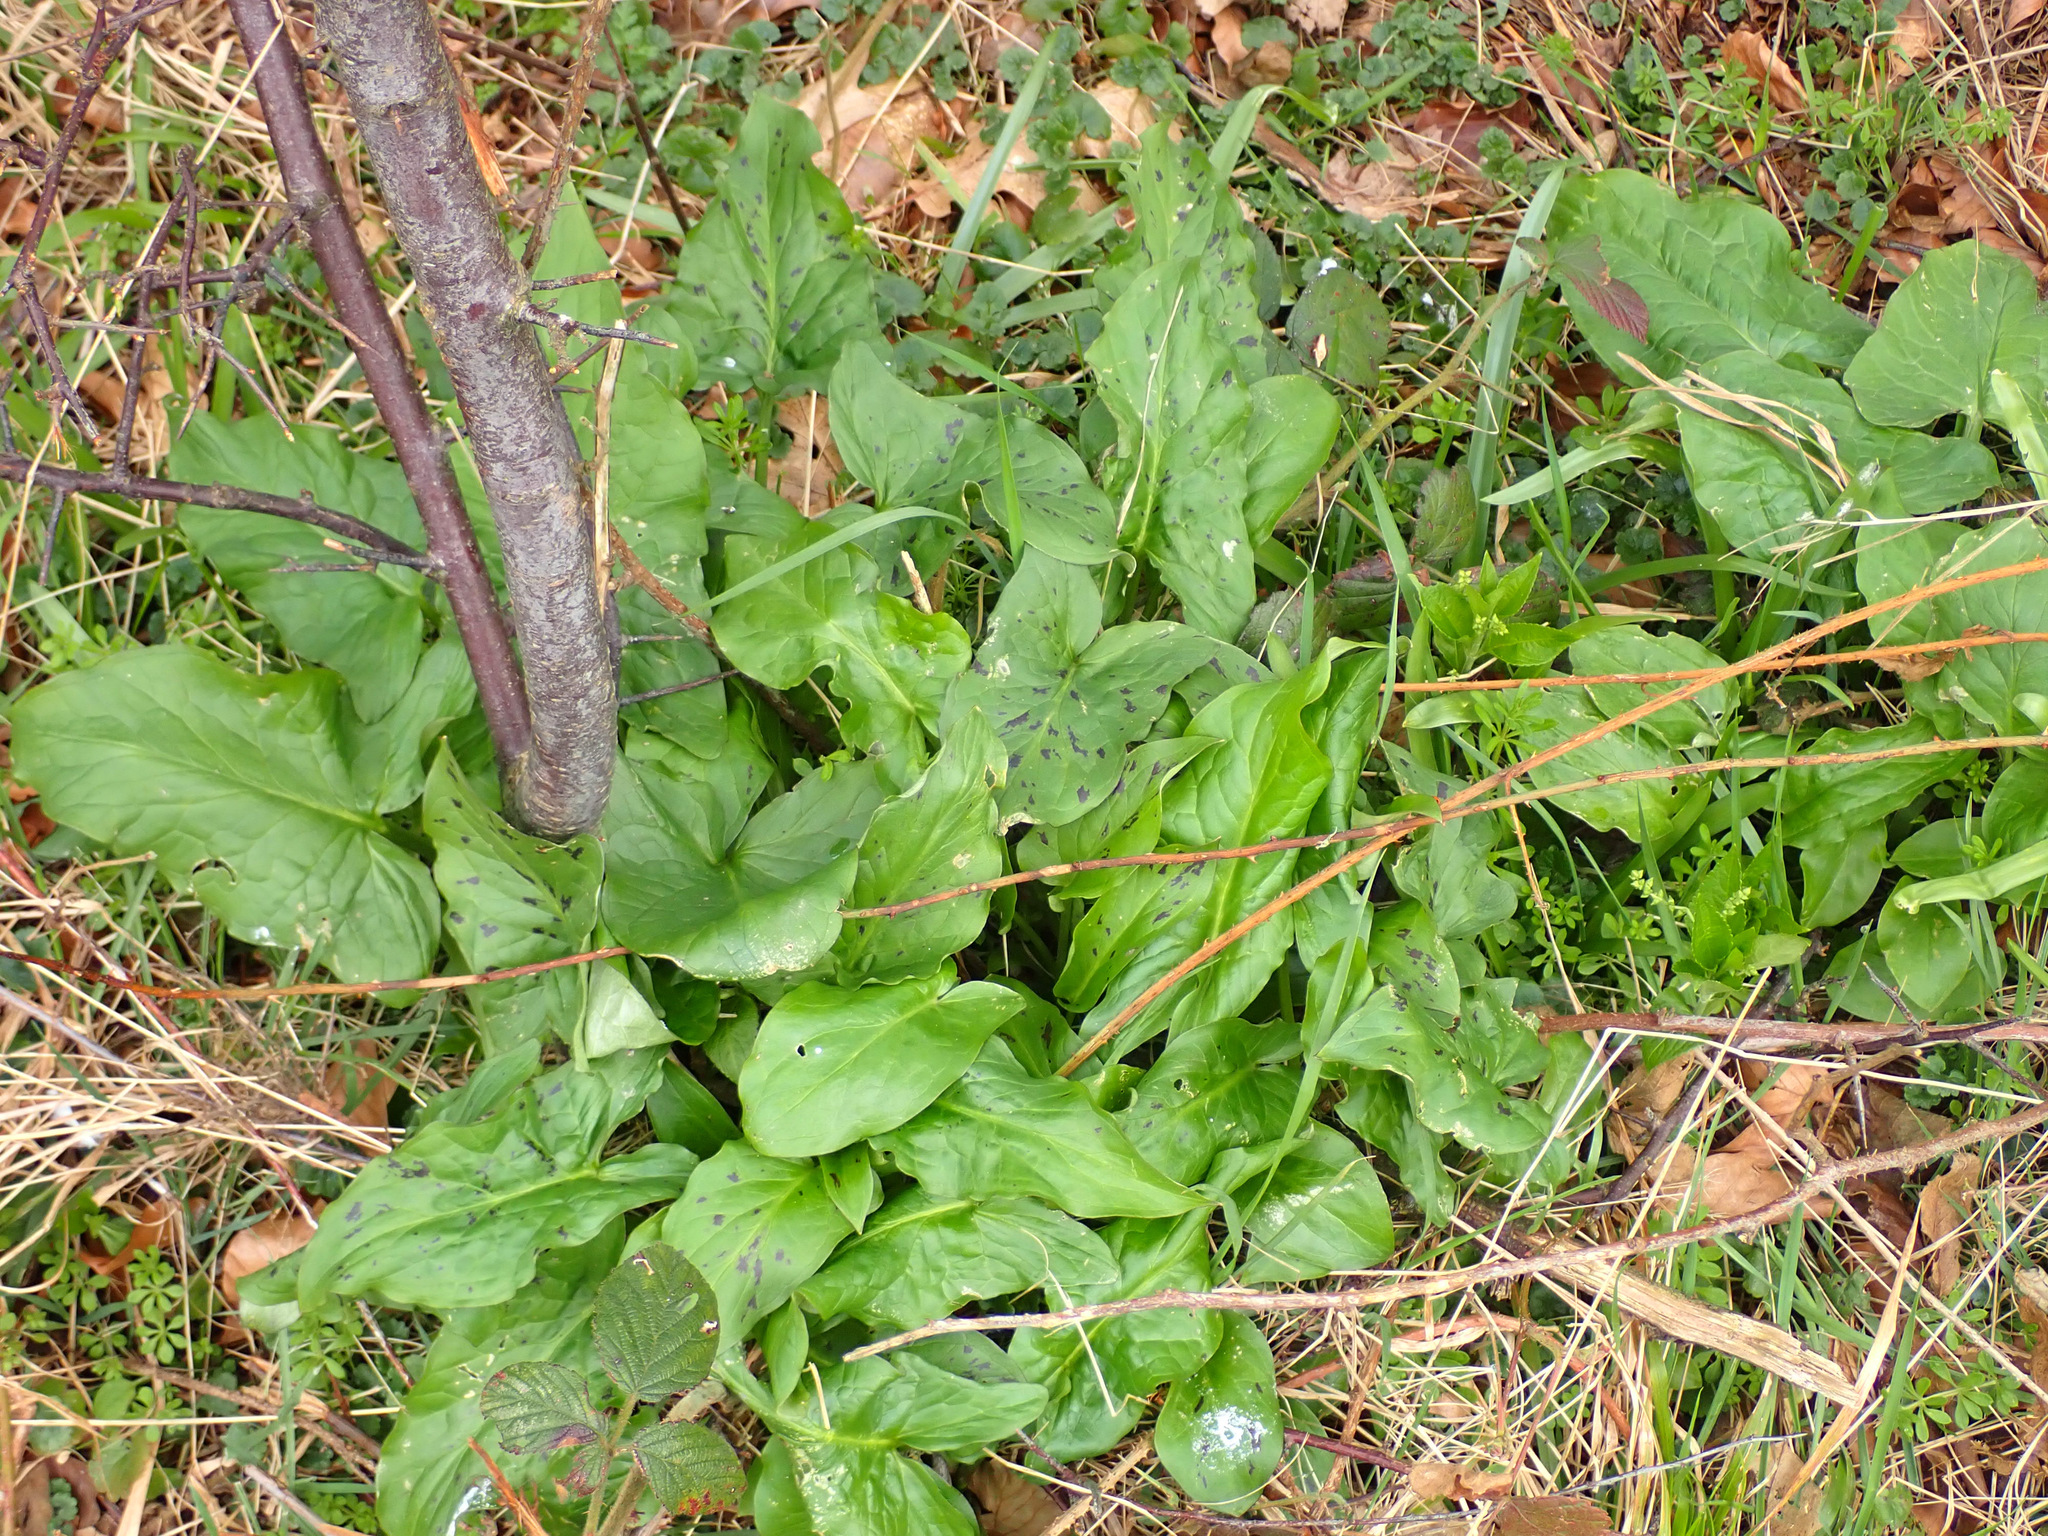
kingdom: Plantae
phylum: Tracheophyta
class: Liliopsida
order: Alismatales
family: Araceae
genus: Arum
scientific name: Arum maculatum
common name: Lords-and-ladies
